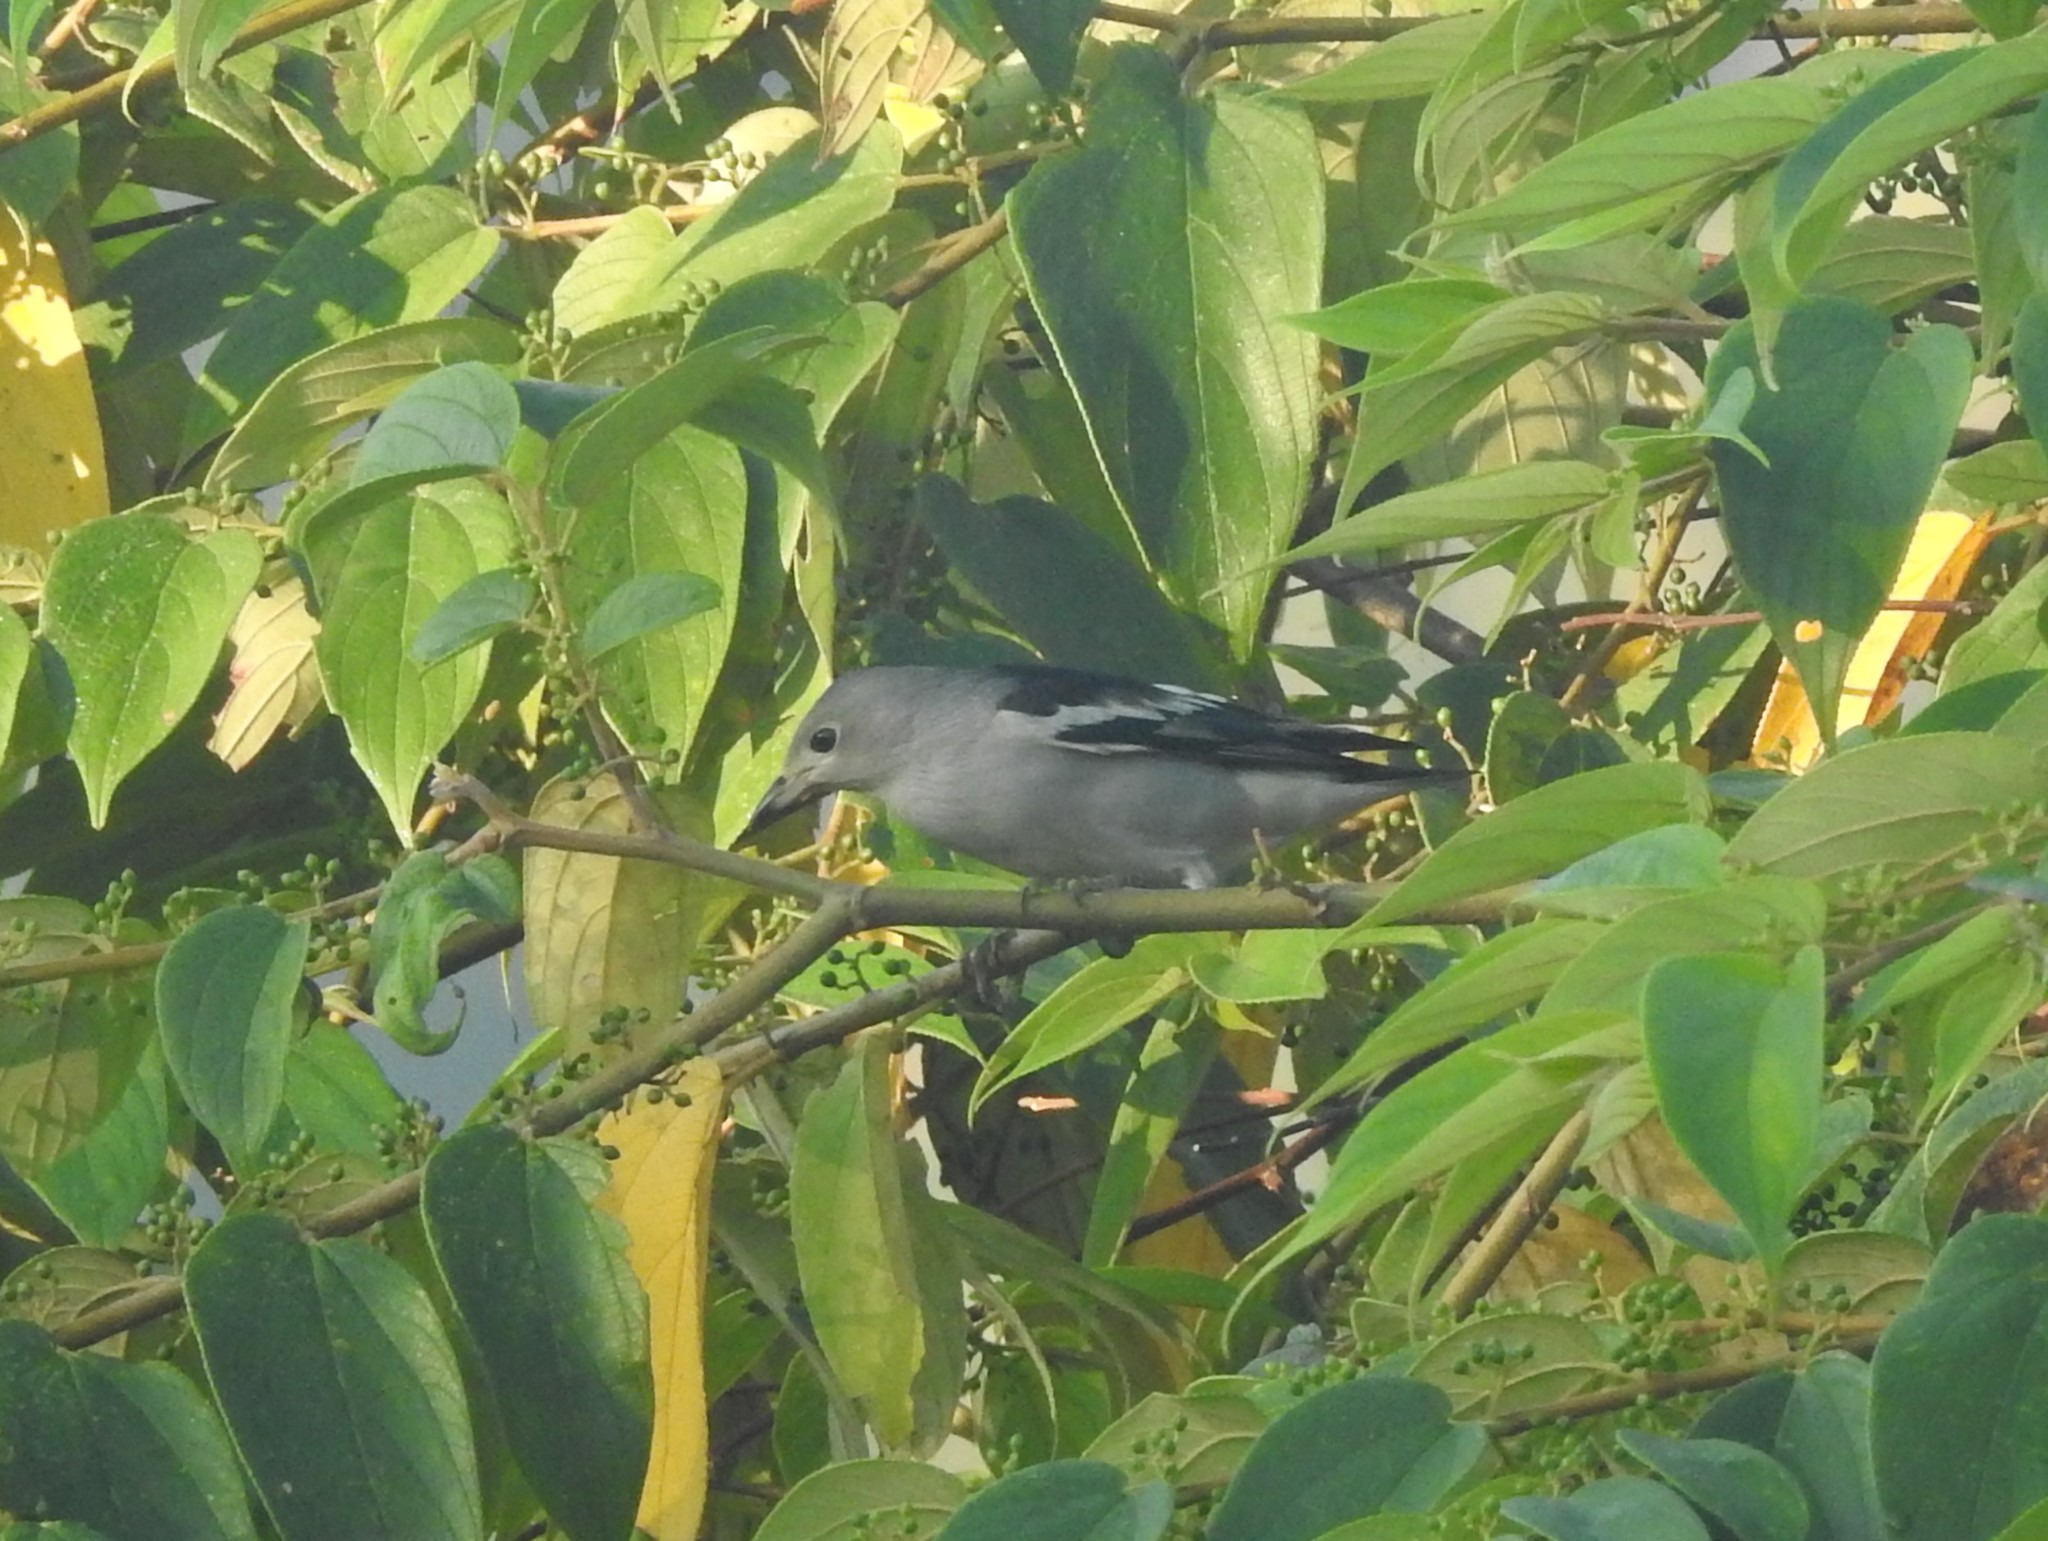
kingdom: Animalia
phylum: Chordata
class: Aves
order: Passeriformes
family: Sturnidae
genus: Agropsar
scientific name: Agropsar sturninus
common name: Daurian starling
